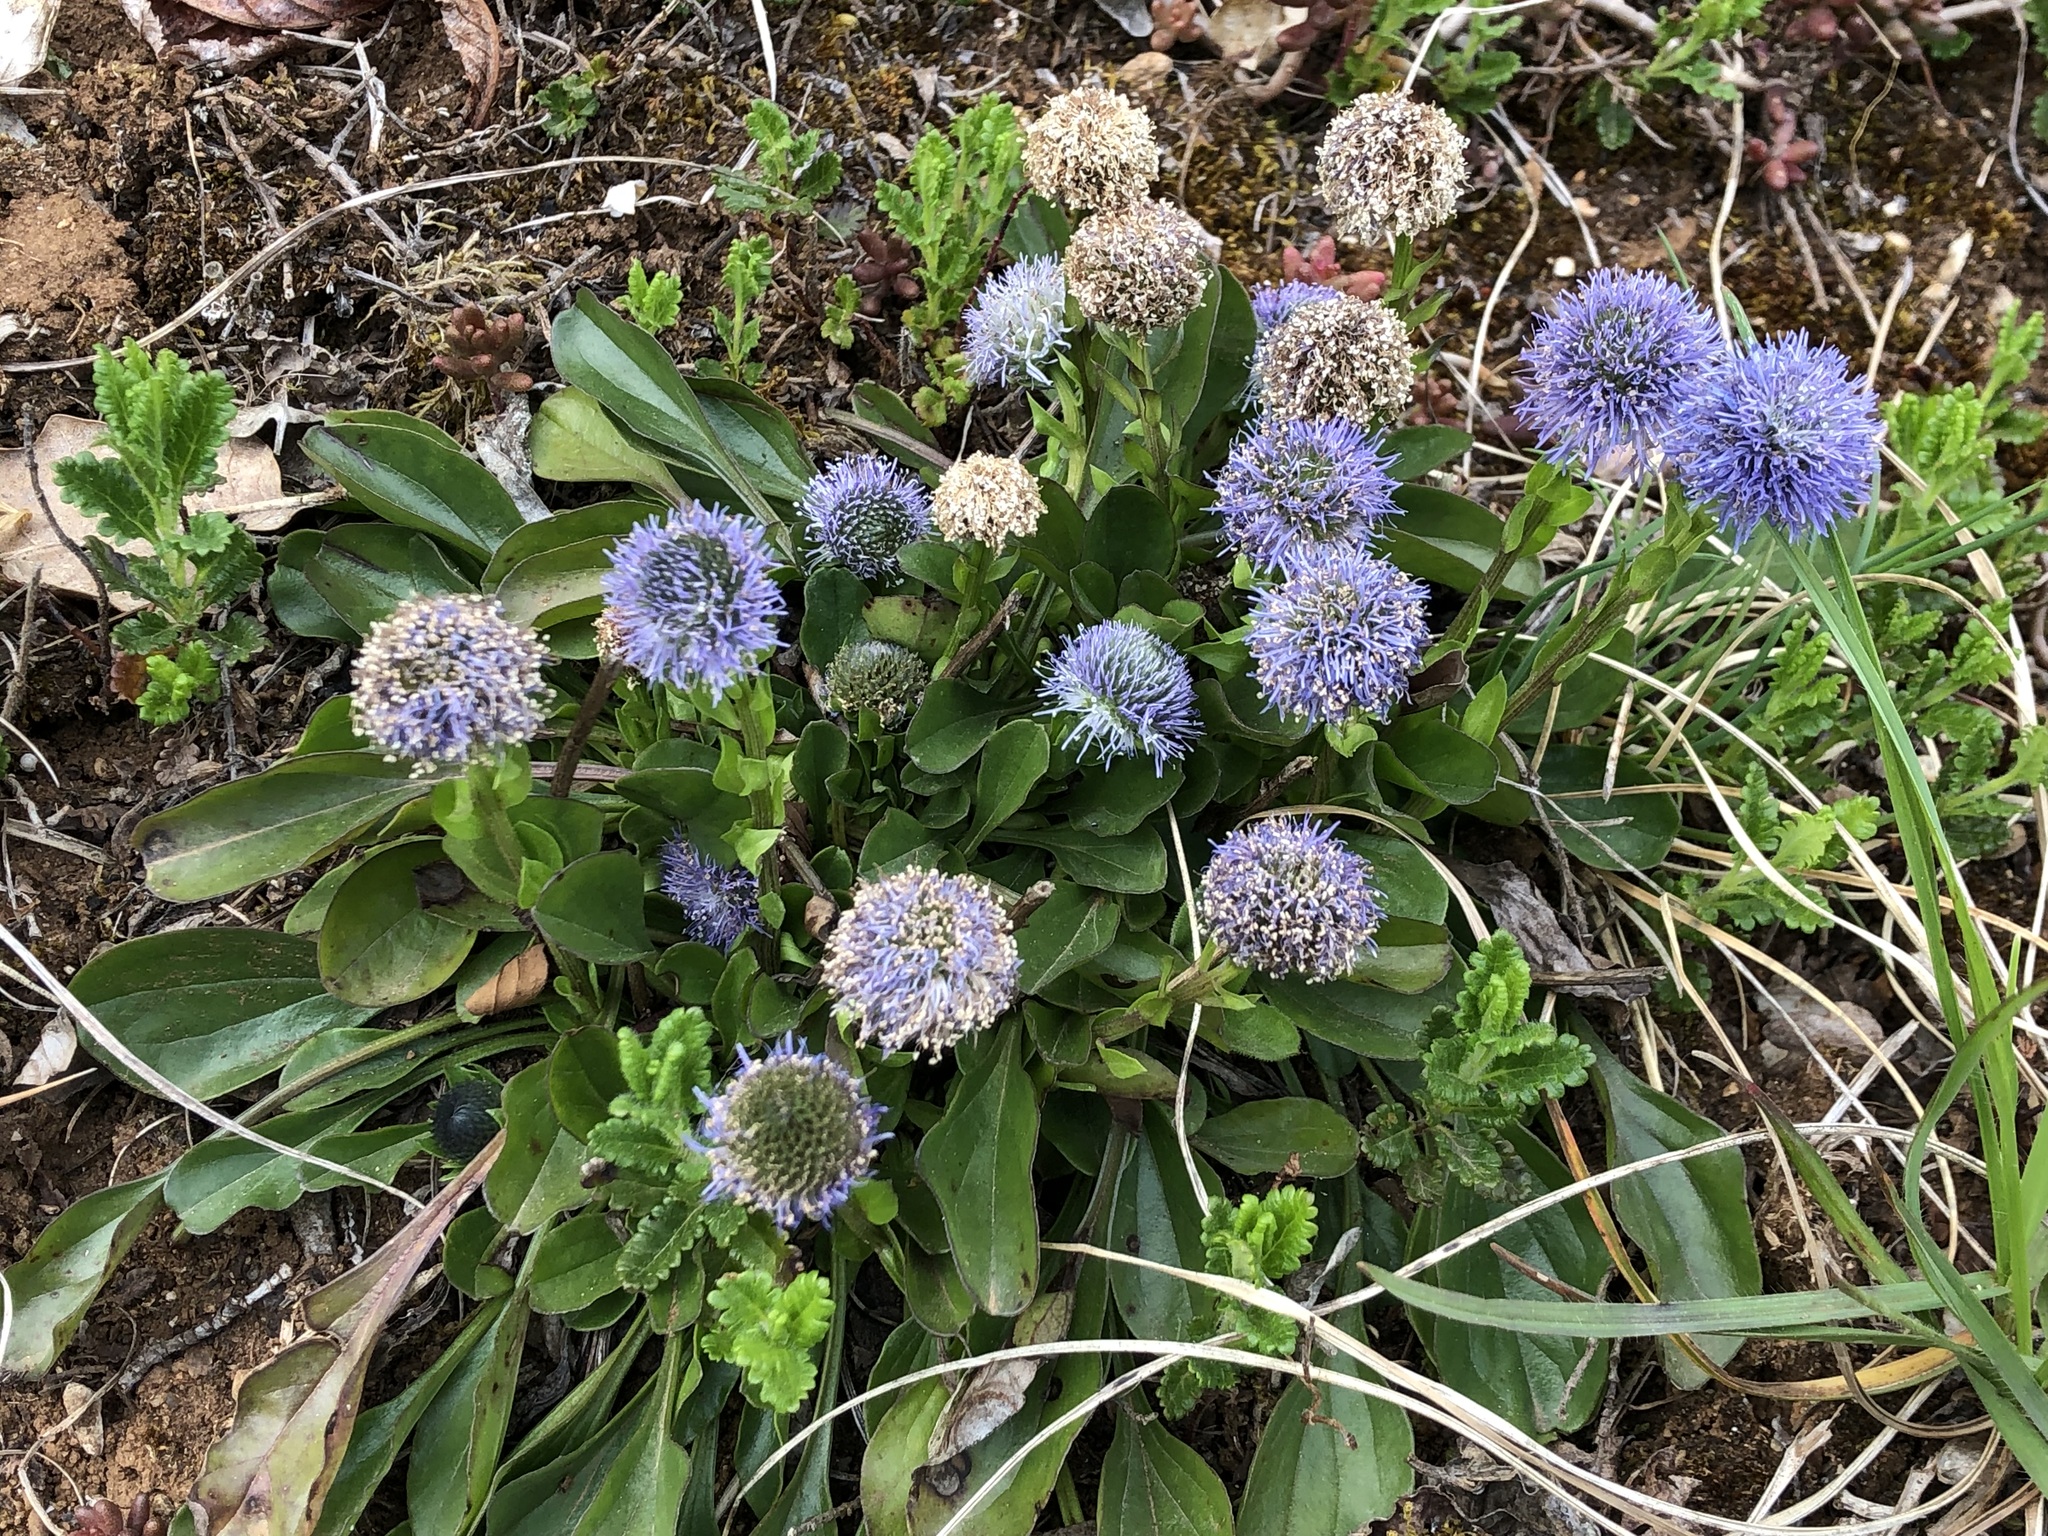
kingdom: Plantae
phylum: Tracheophyta
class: Magnoliopsida
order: Lamiales
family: Plantaginaceae
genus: Globularia
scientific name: Globularia bisnagarica
